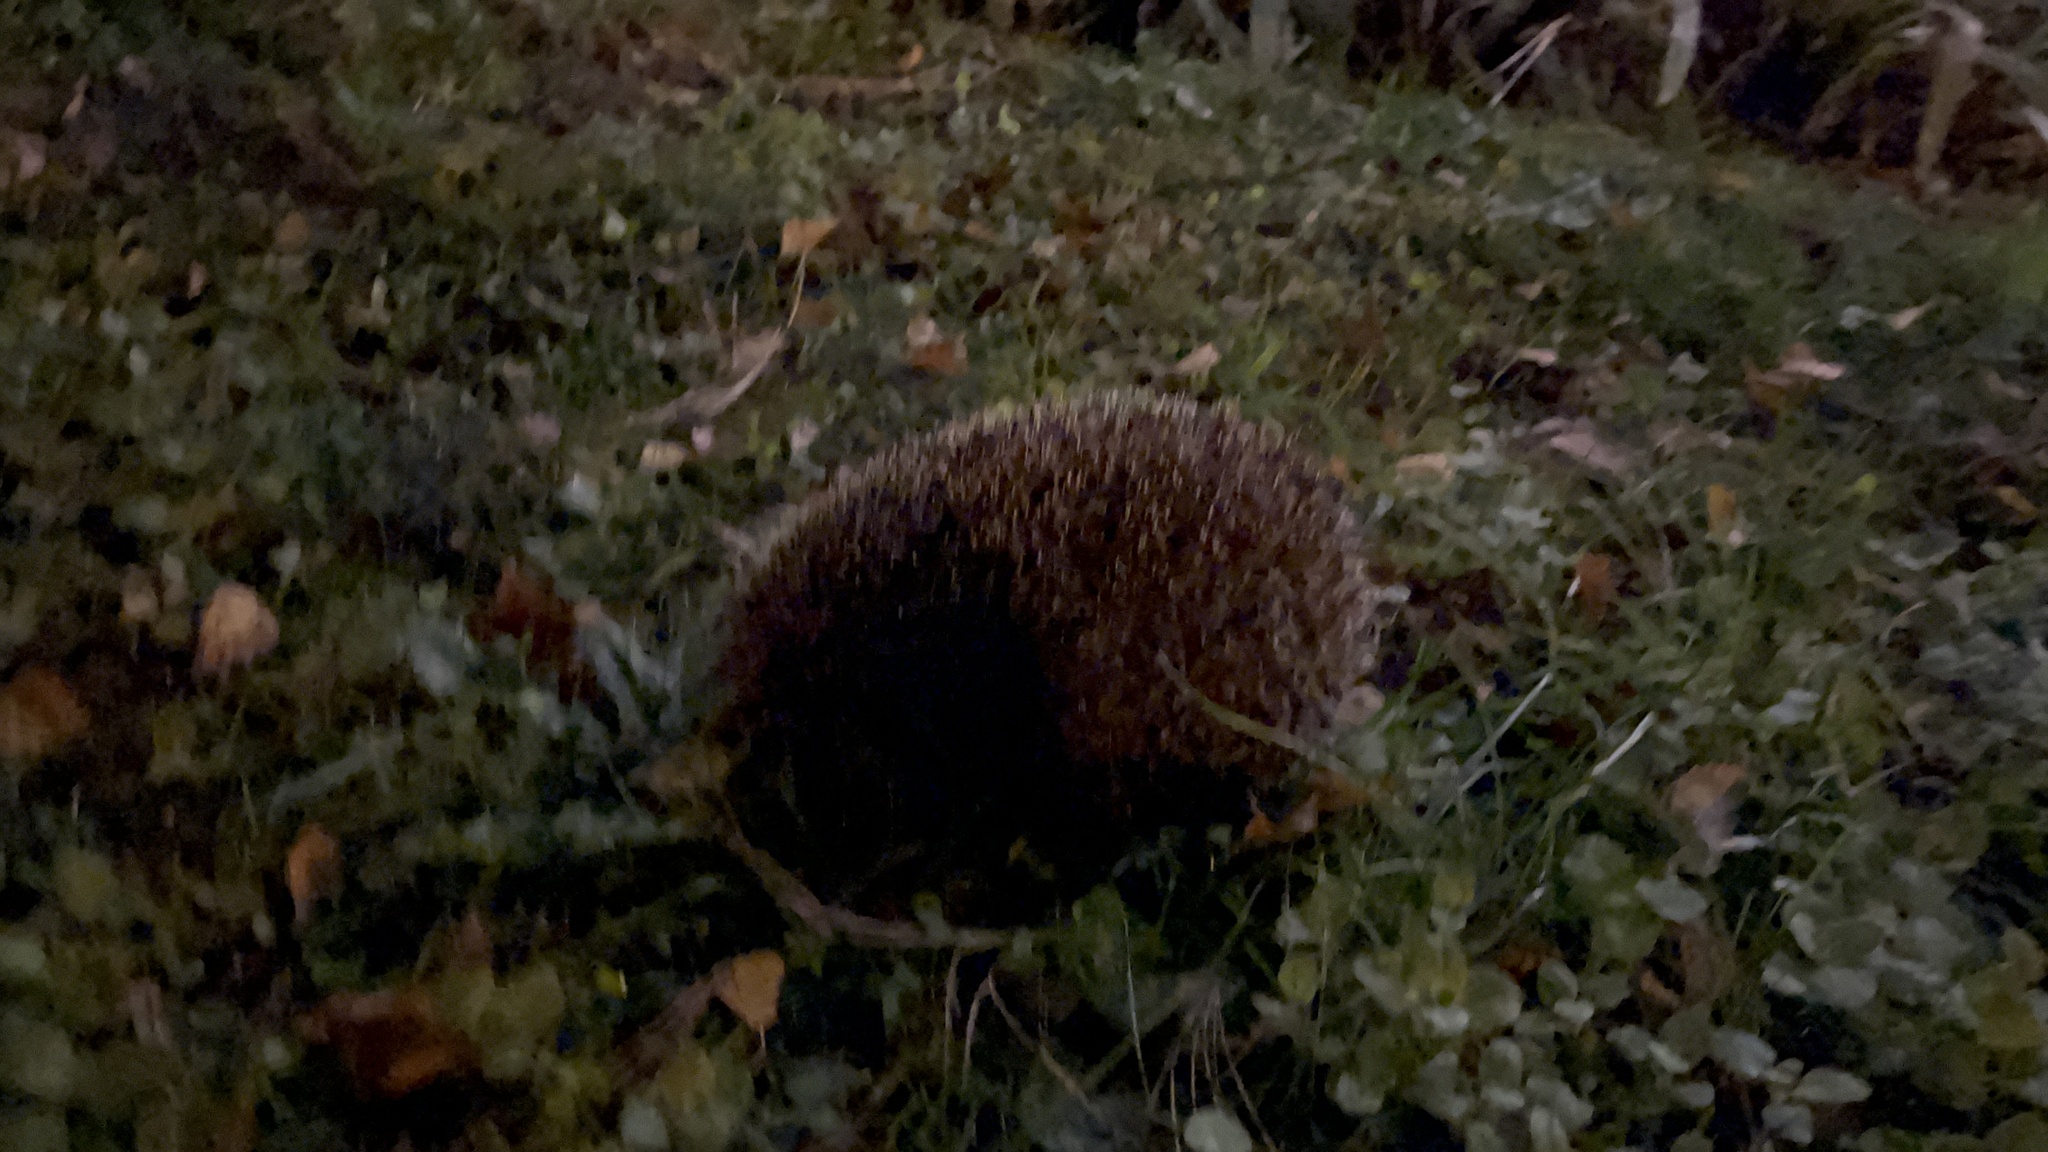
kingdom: Animalia
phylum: Chordata
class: Mammalia
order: Erinaceomorpha
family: Erinaceidae
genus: Erinaceus
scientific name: Erinaceus europaeus
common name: West european hedgehog
